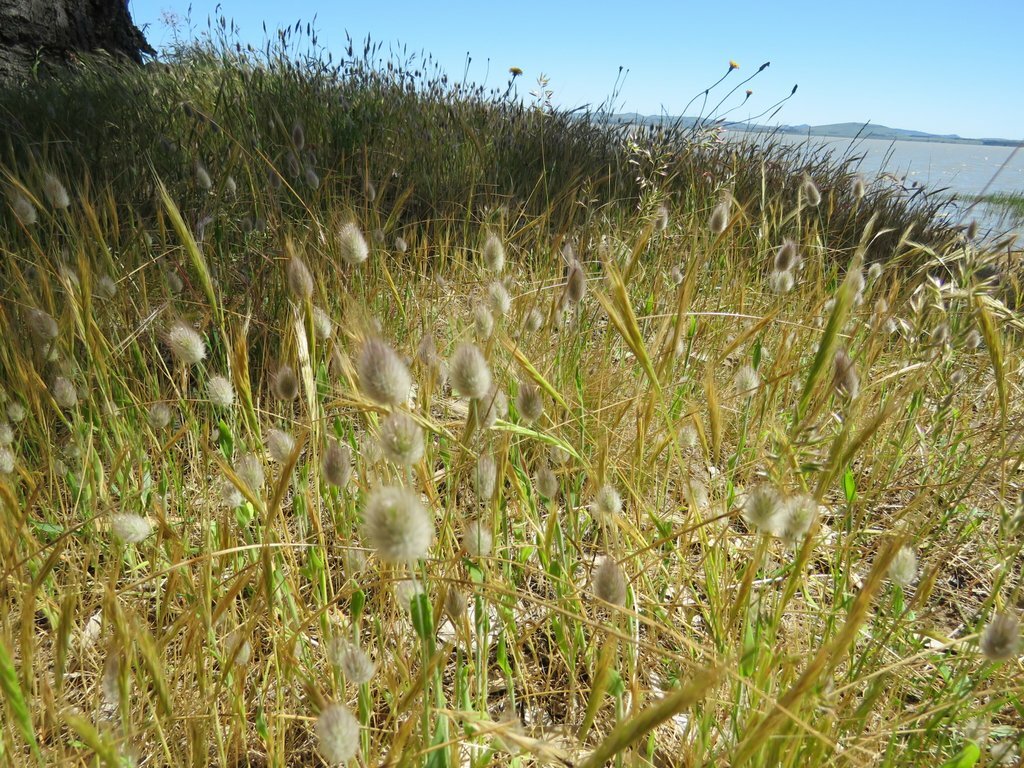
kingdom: Plantae
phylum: Tracheophyta
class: Liliopsida
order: Poales
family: Poaceae
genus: Lagurus
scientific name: Lagurus ovatus
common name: Hare's-tail
